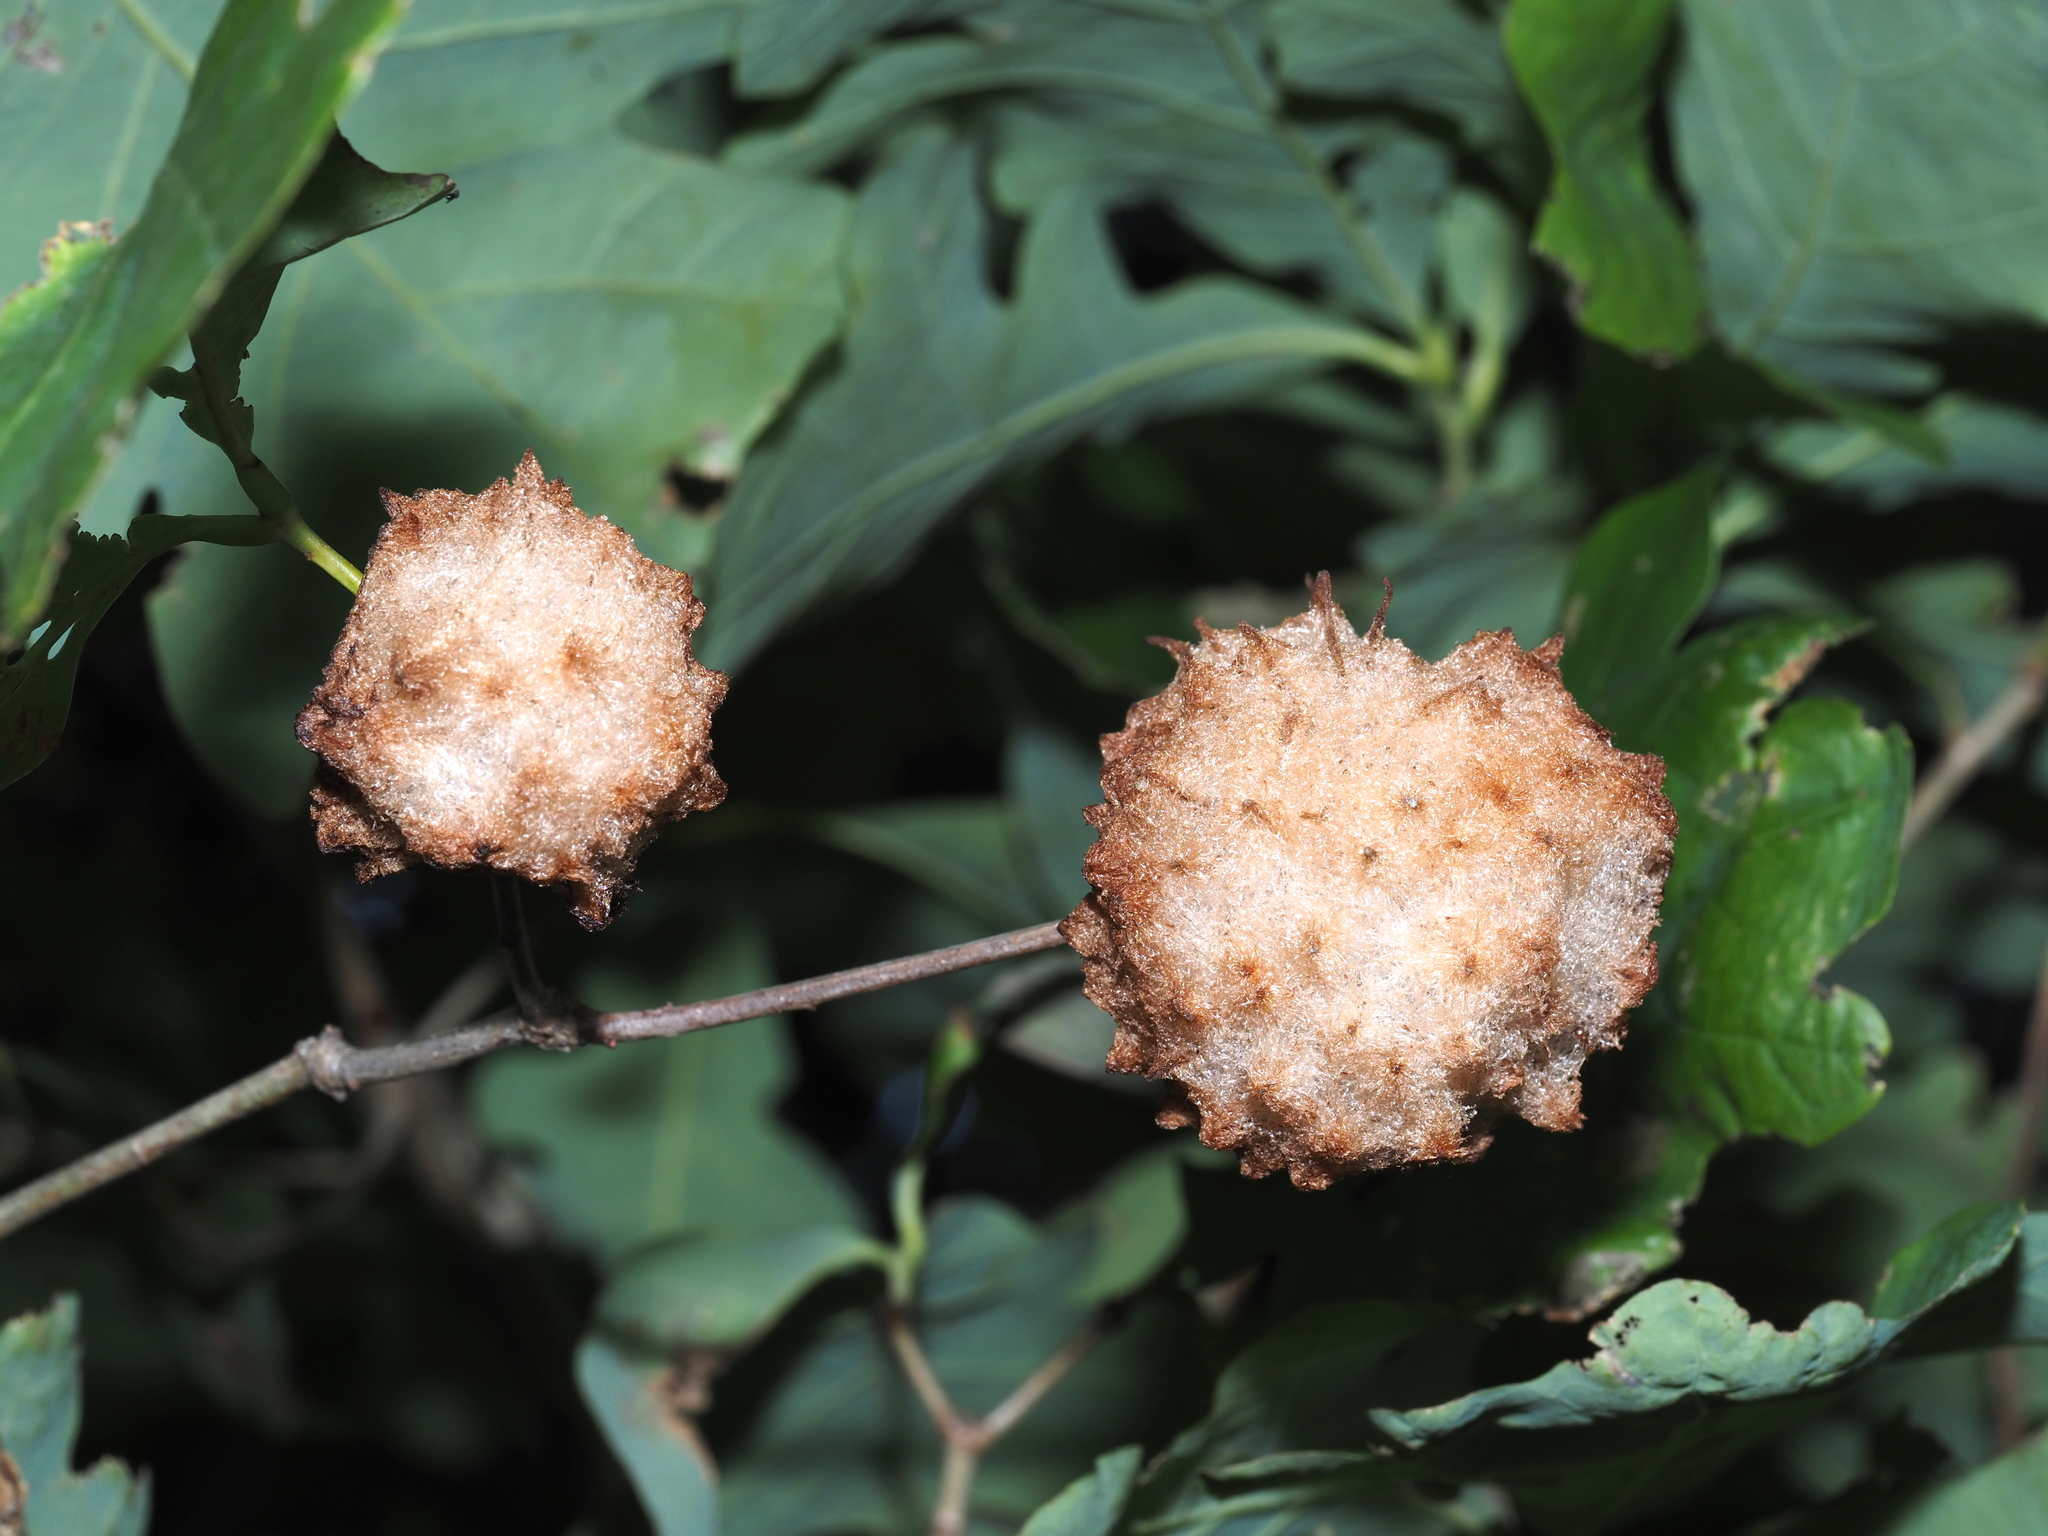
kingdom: Animalia
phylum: Arthropoda
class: Insecta
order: Hymenoptera
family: Cynipidae
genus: Callirhytis
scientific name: Callirhytis
